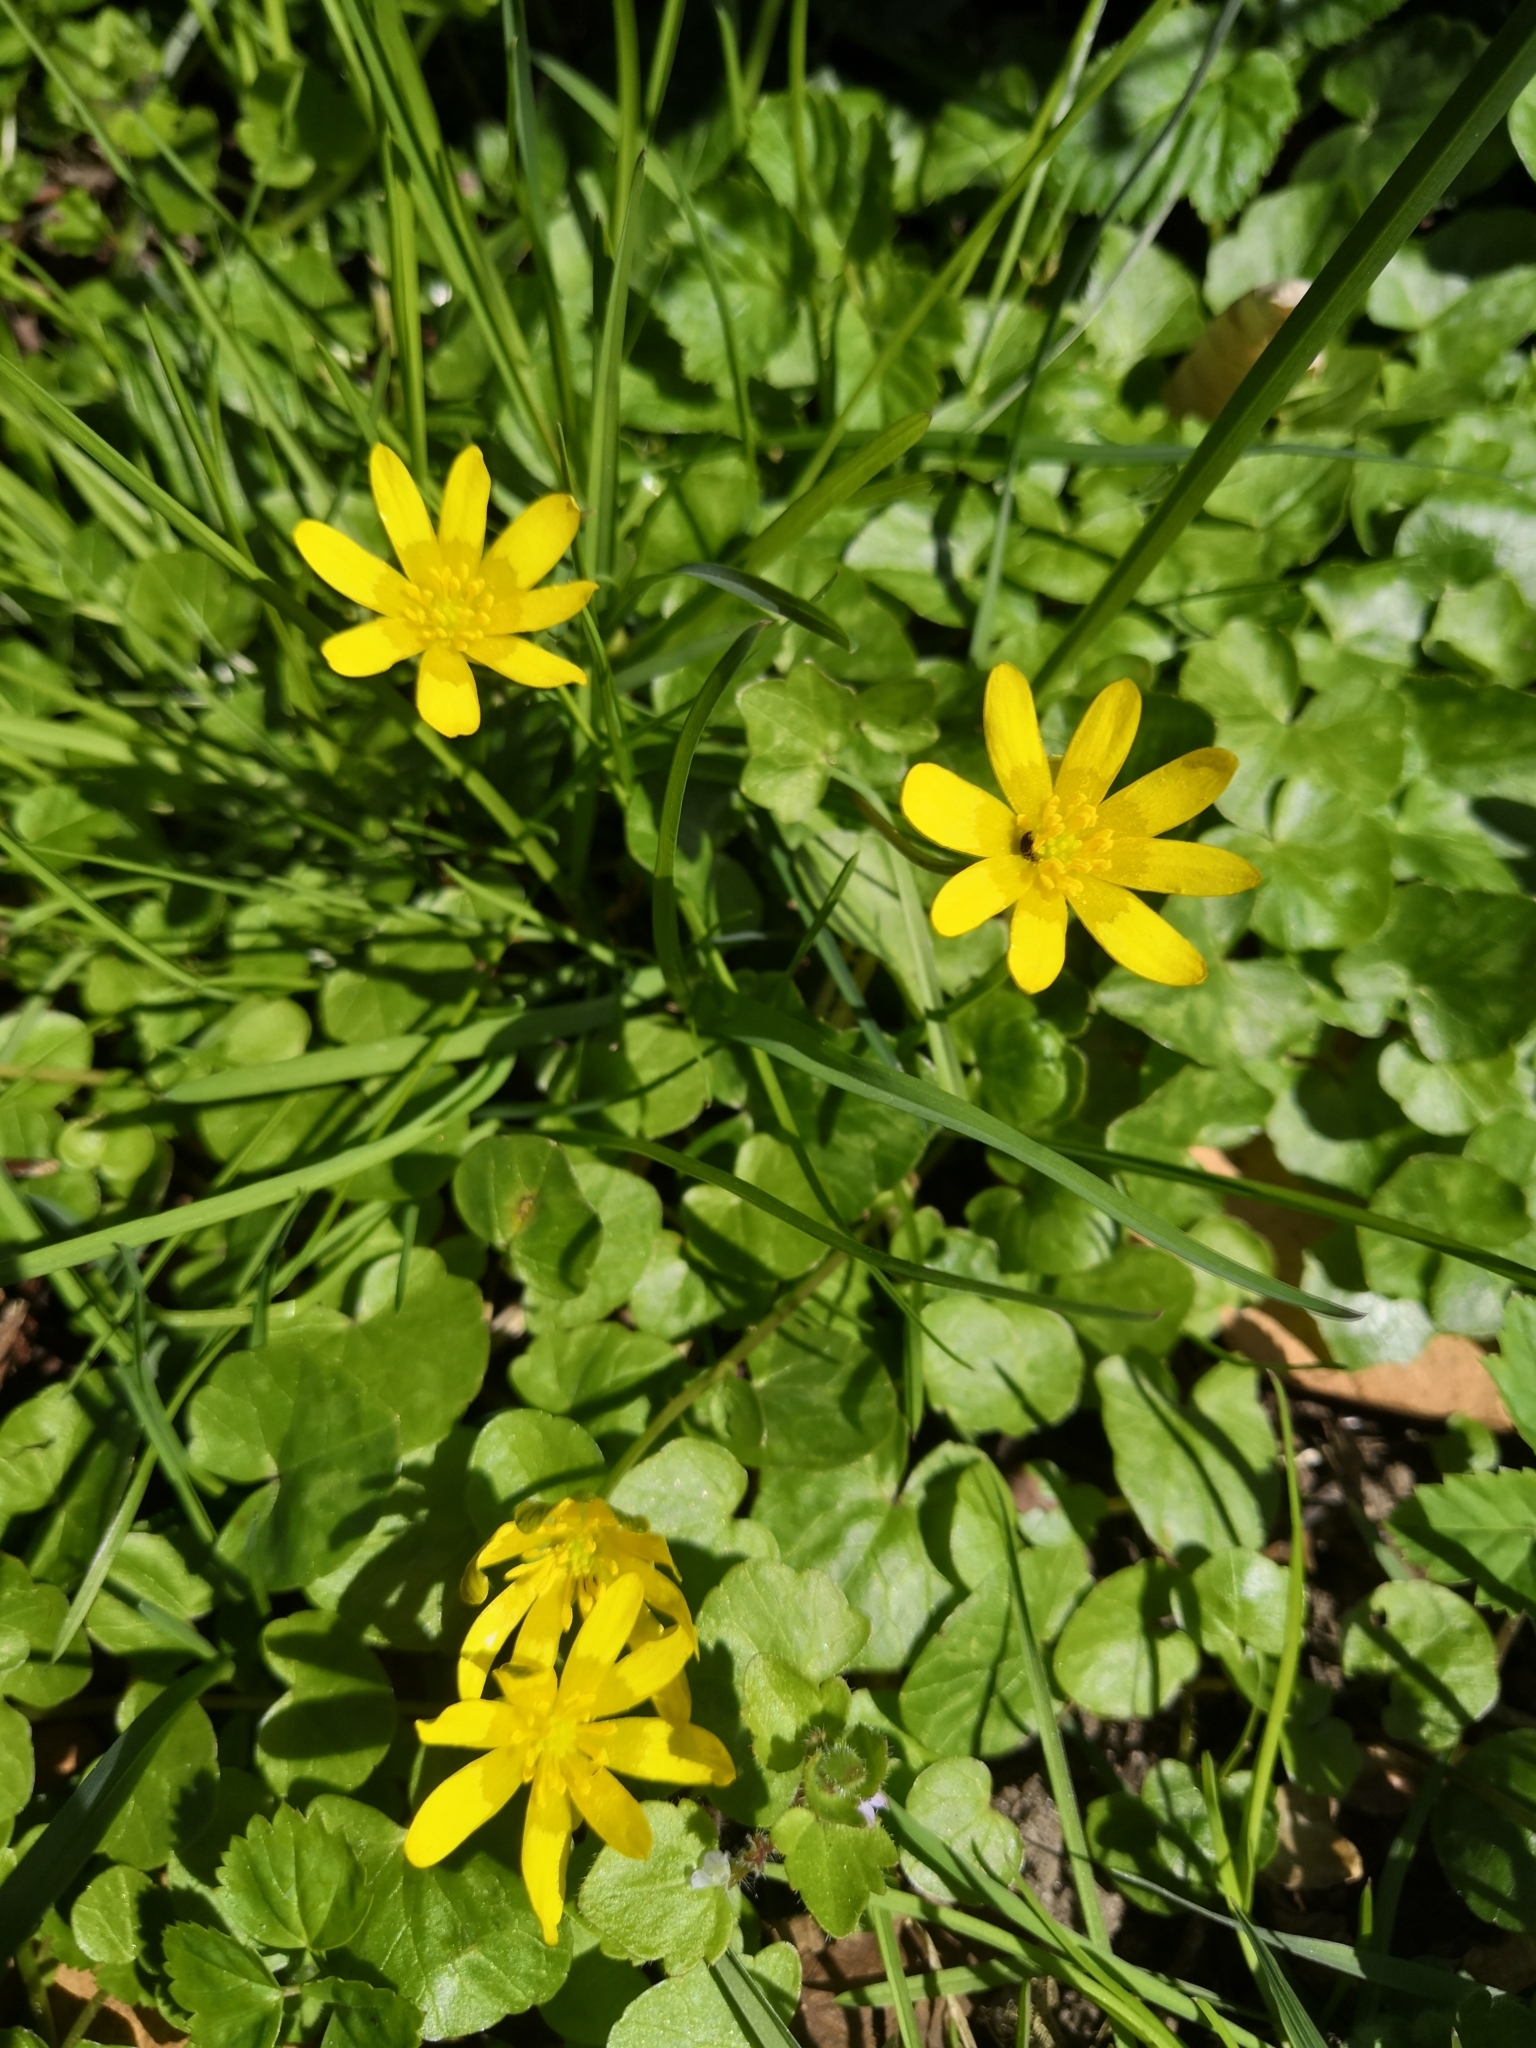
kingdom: Plantae
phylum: Tracheophyta
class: Magnoliopsida
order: Ranunculales
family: Ranunculaceae
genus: Ficaria
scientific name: Ficaria verna
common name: Lesser celandine
